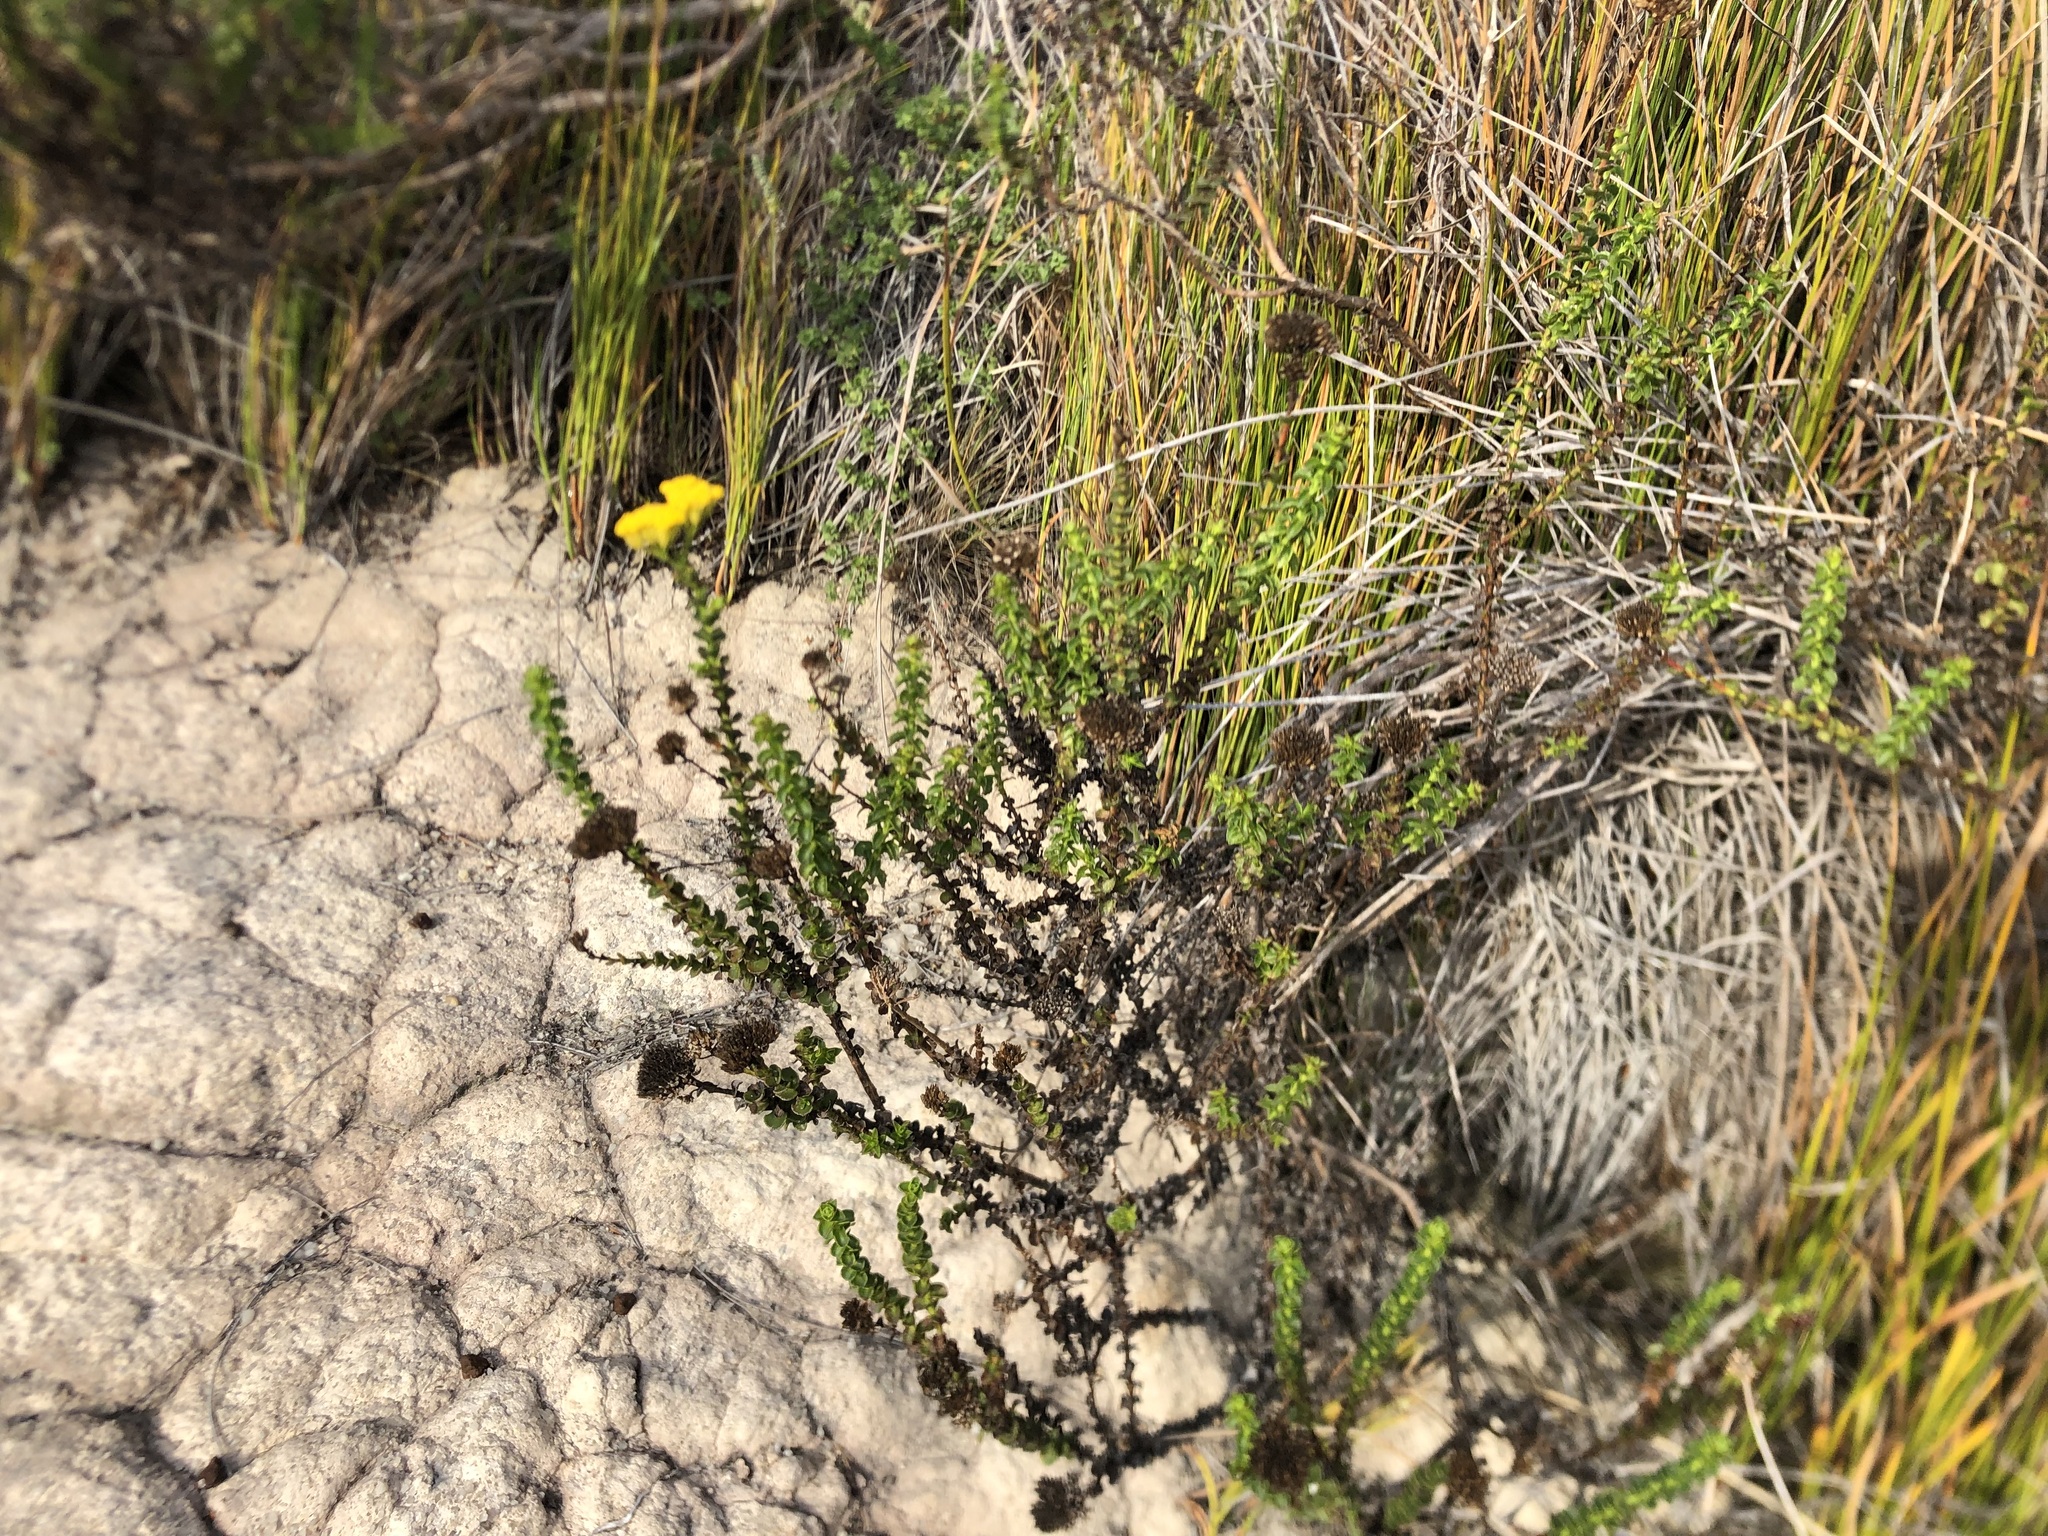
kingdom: Plantae
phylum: Tracheophyta
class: Magnoliopsida
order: Asterales
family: Asteraceae
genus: Athanasia
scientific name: Athanasia dentata
